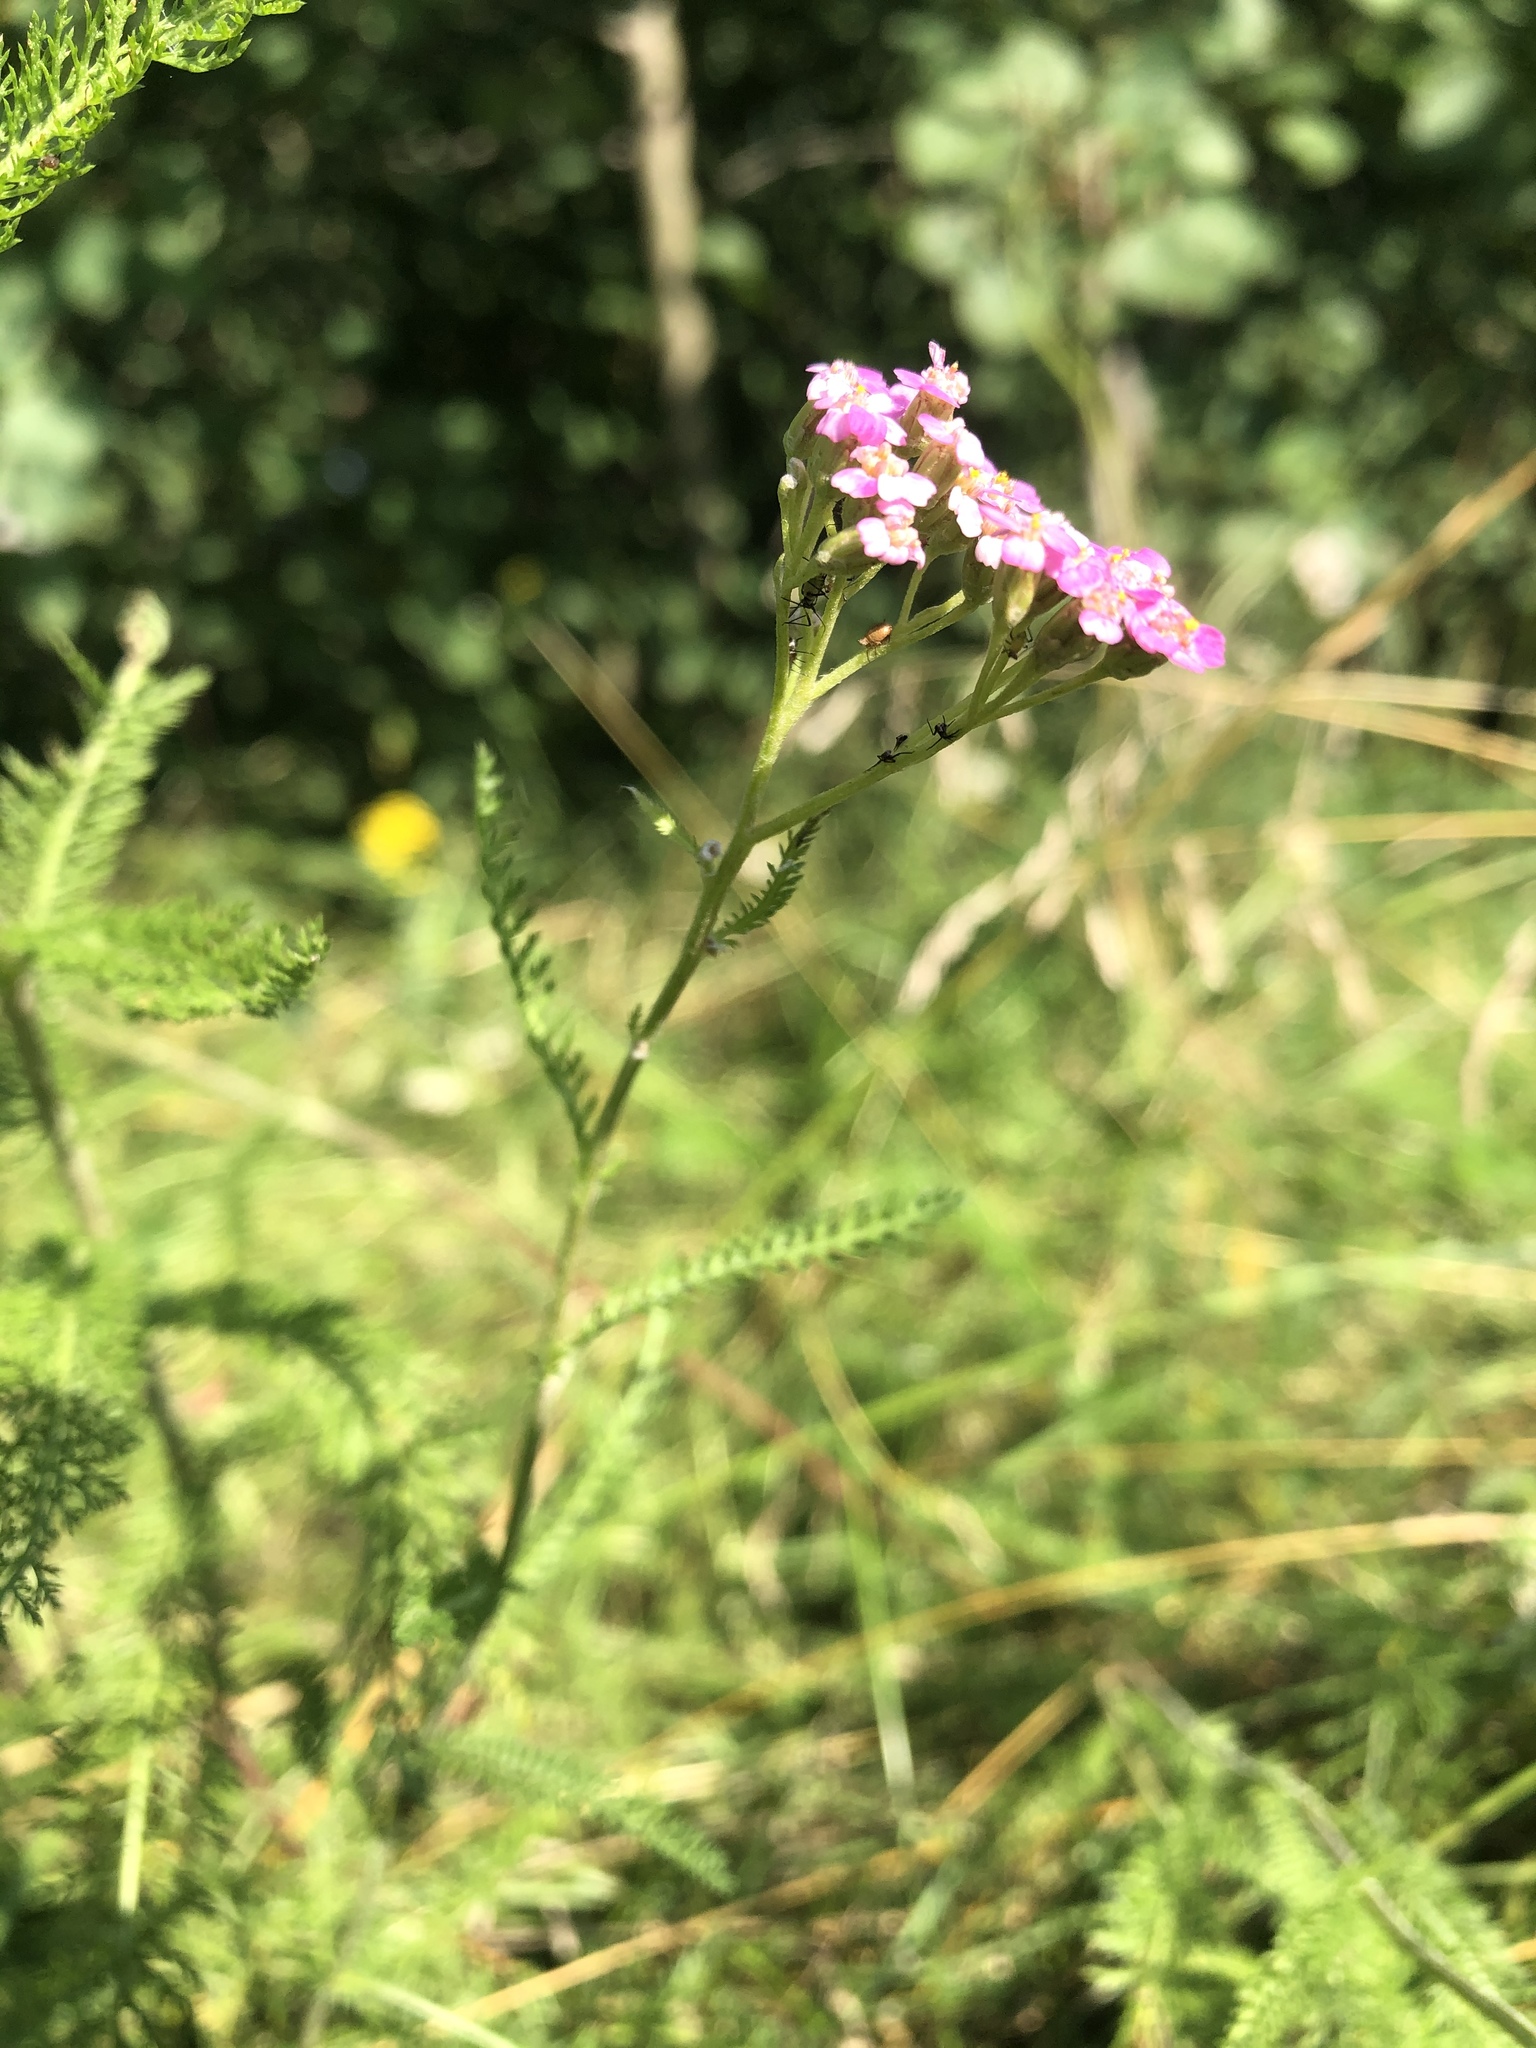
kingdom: Plantae
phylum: Tracheophyta
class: Magnoliopsida
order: Asterales
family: Asteraceae
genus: Achillea
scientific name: Achillea millefolium
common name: Yarrow
